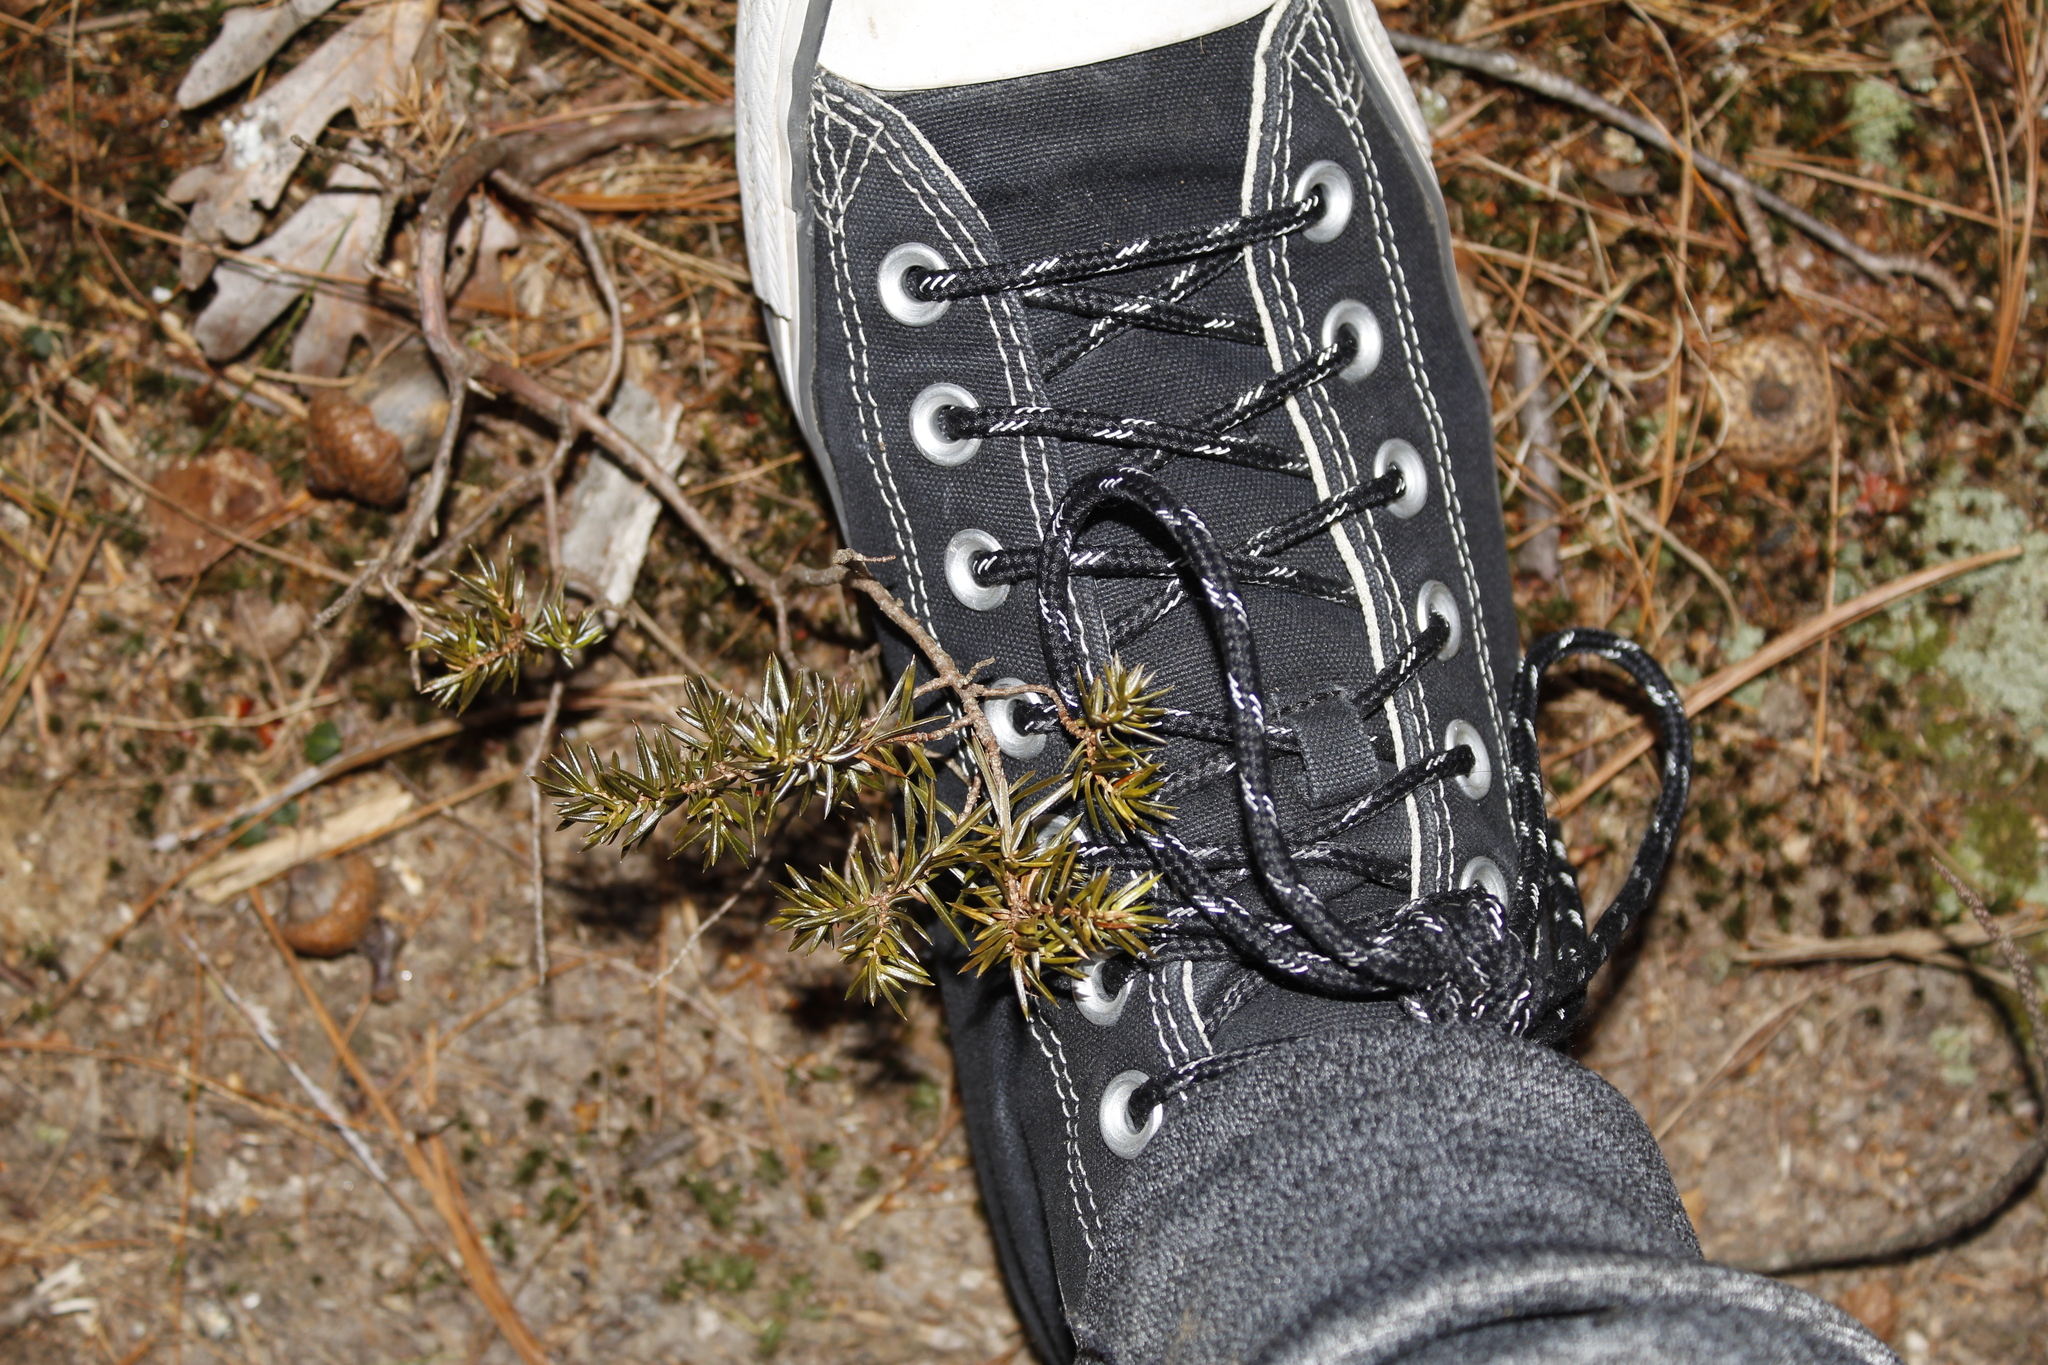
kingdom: Plantae
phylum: Tracheophyta
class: Pinopsida
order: Pinales
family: Cupressaceae
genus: Juniperus
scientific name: Juniperus communis
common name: Common juniper
